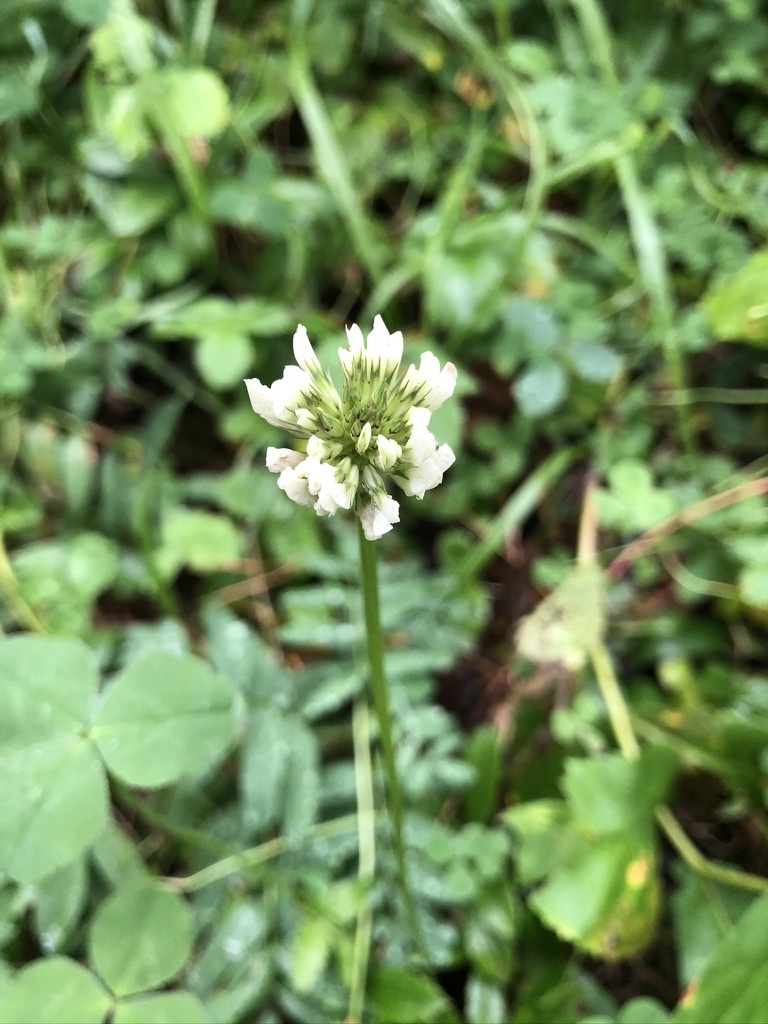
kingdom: Plantae
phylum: Tracheophyta
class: Magnoliopsida
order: Fabales
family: Fabaceae
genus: Trifolium
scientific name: Trifolium repens
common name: White clover
